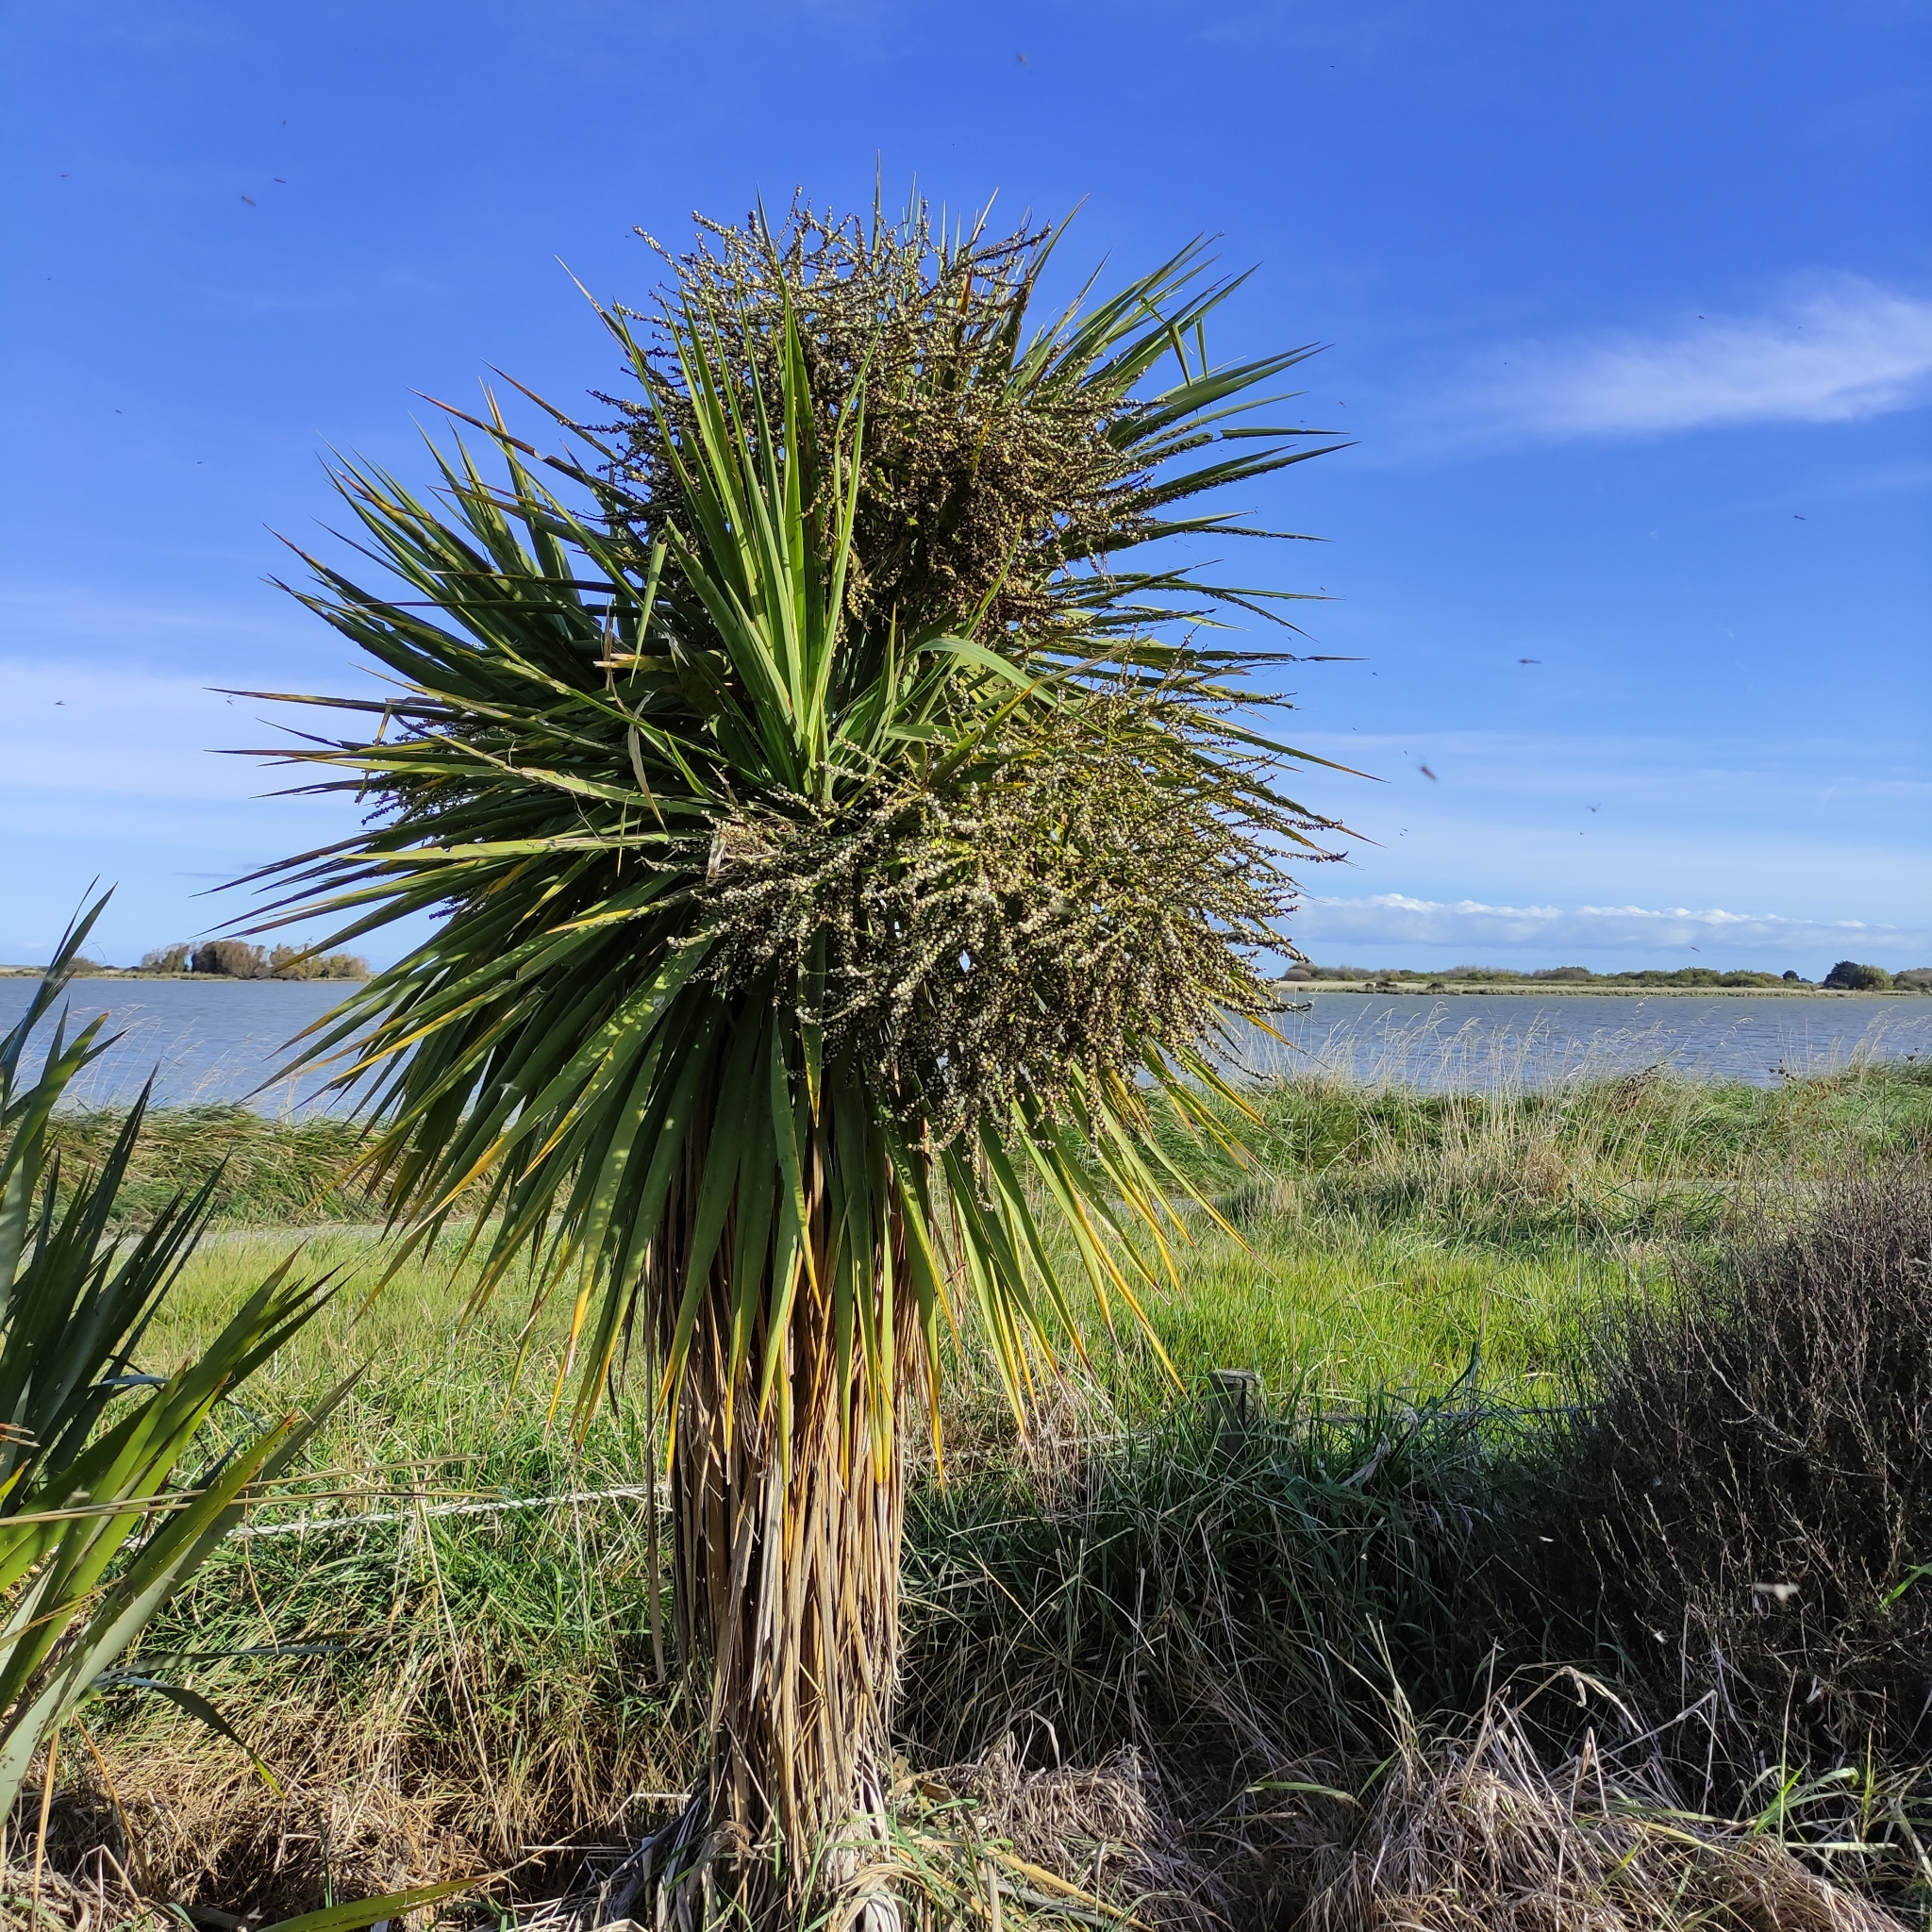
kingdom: Plantae
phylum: Tracheophyta
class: Liliopsida
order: Asparagales
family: Asparagaceae
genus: Cordyline
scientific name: Cordyline australis
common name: Cabbage-palm
